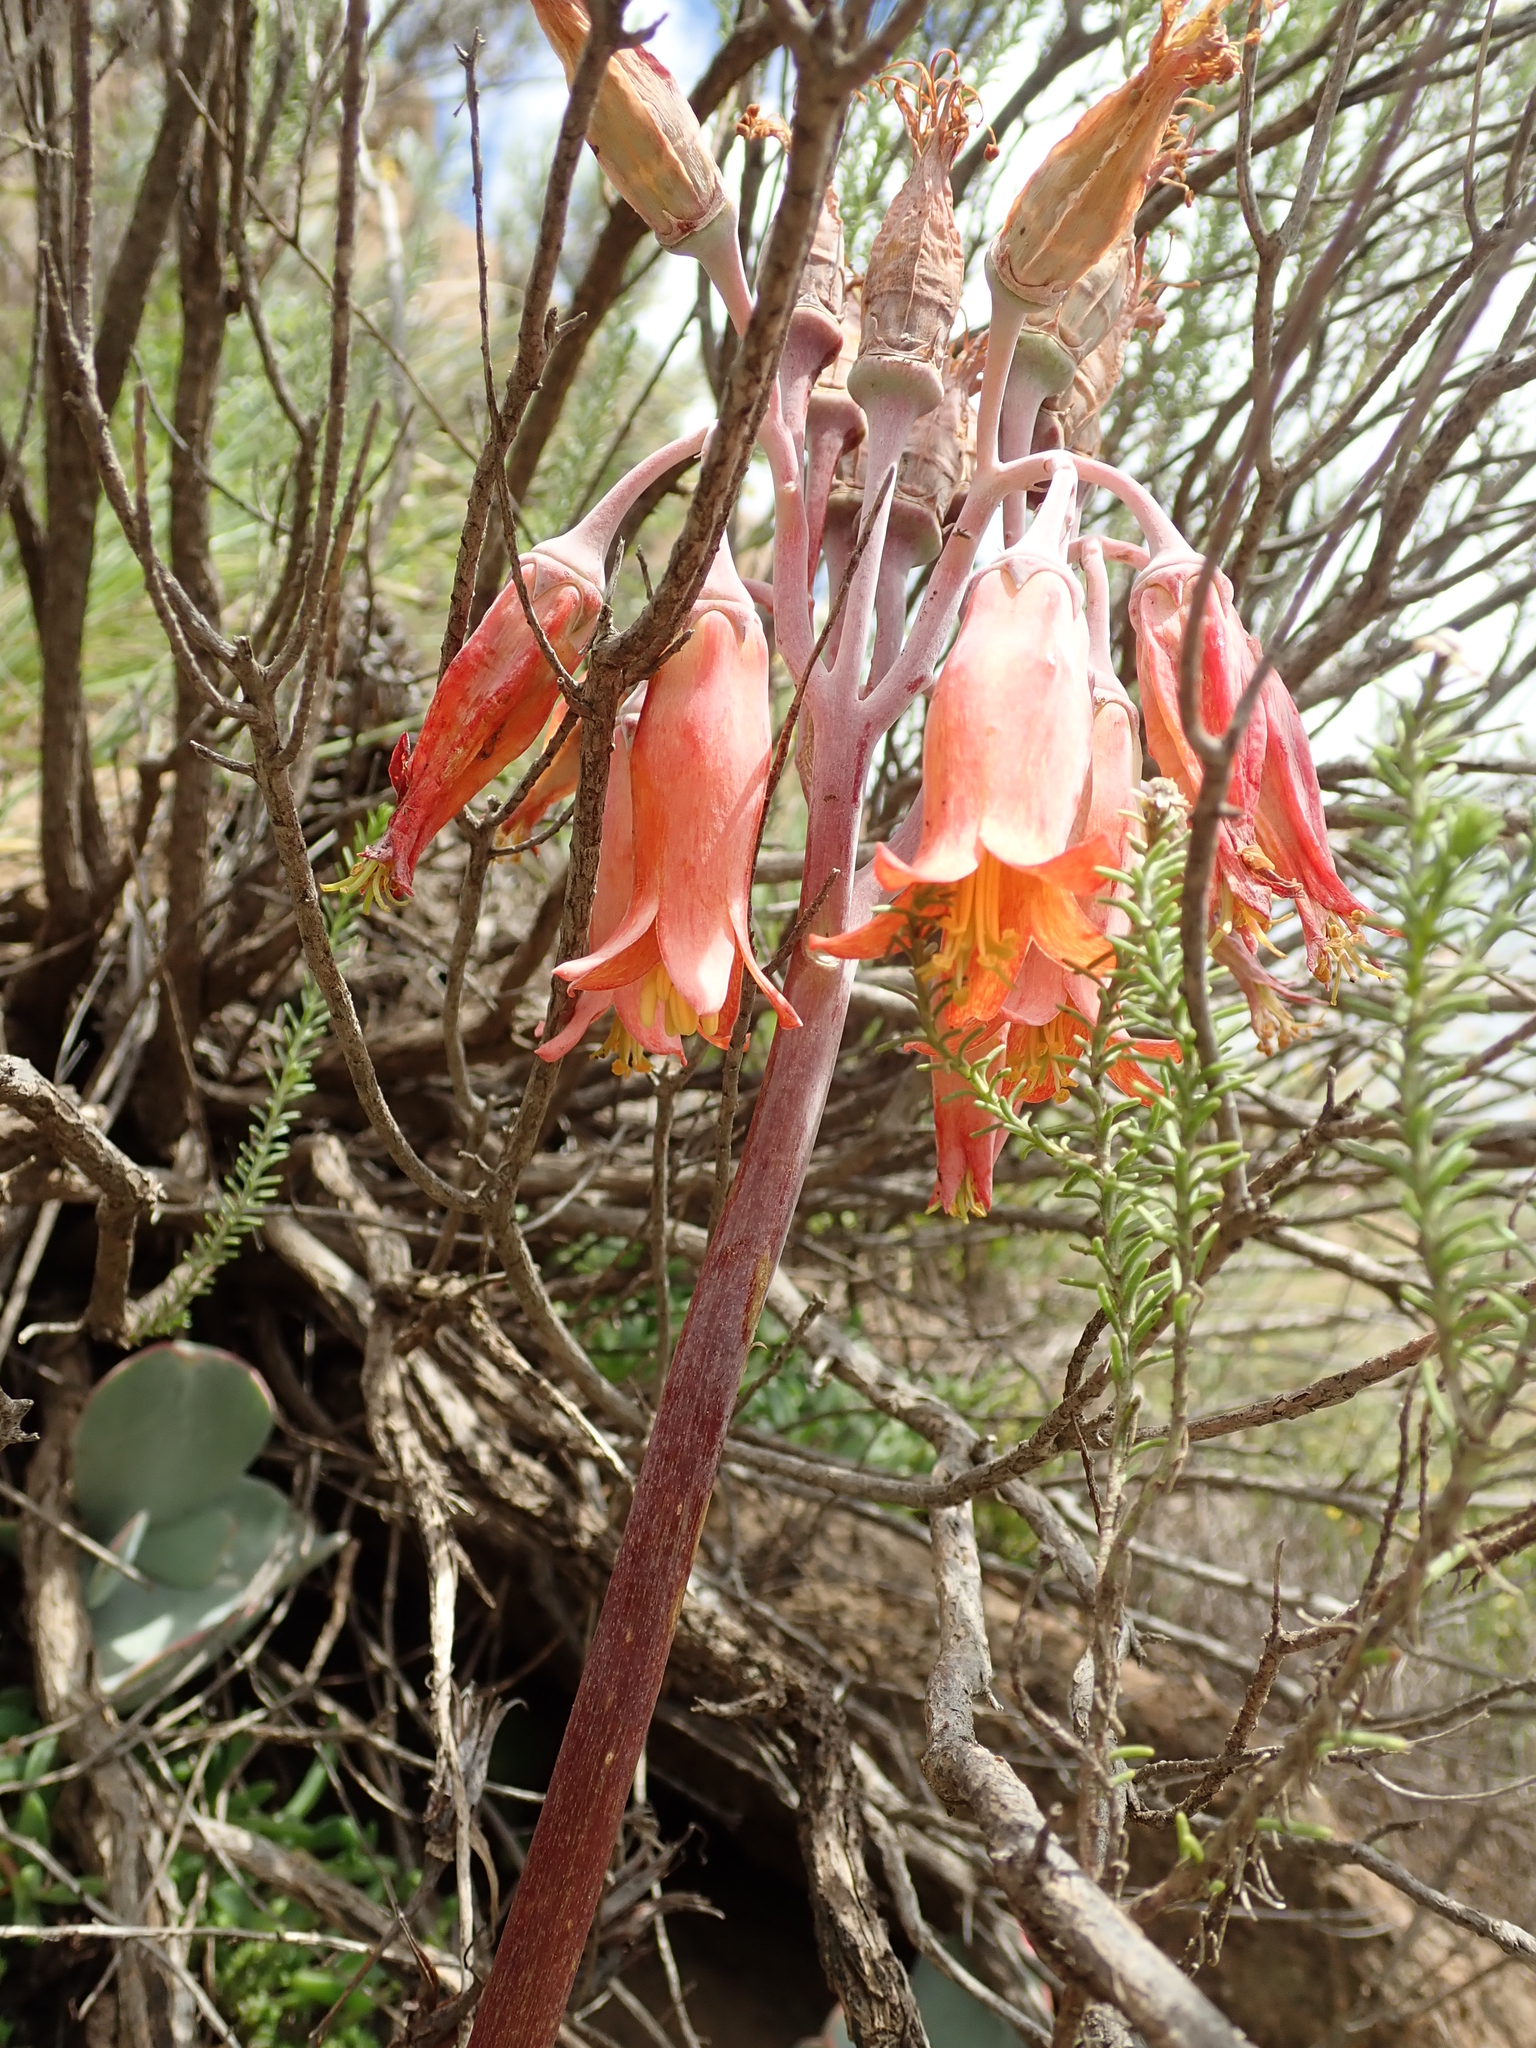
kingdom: Plantae
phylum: Tracheophyta
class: Magnoliopsida
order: Saxifragales
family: Crassulaceae
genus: Cotyledon
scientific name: Cotyledon orbiculata
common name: Pig's ear
